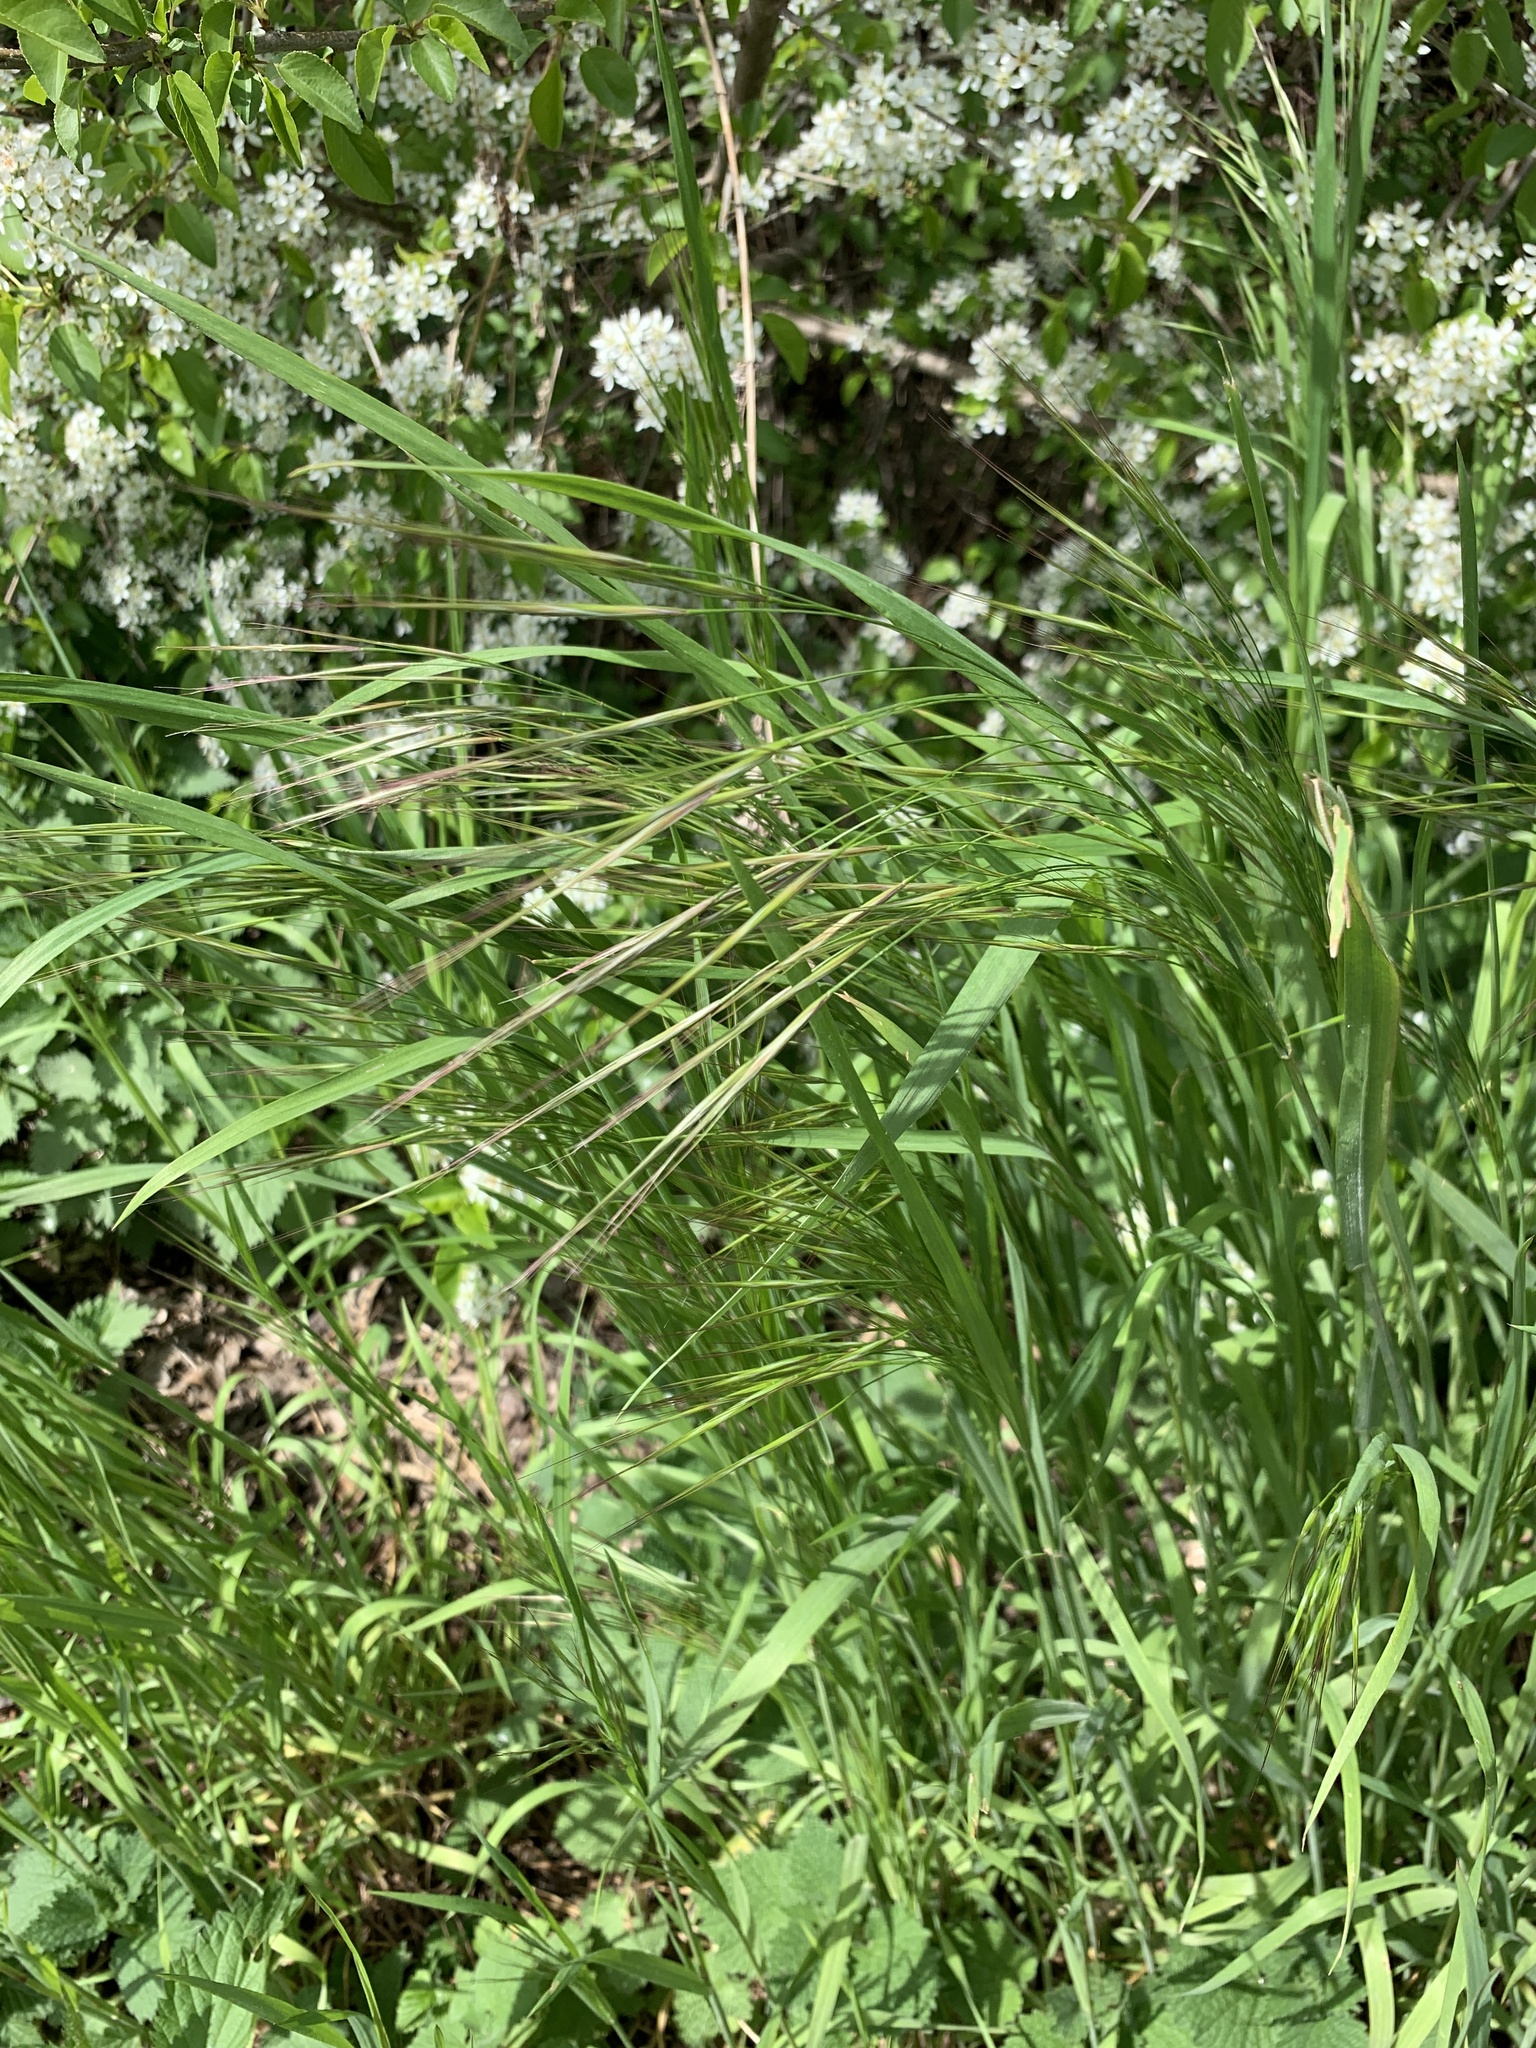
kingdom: Plantae
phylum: Tracheophyta
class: Liliopsida
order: Poales
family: Poaceae
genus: Bromus
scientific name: Bromus sterilis
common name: Poverty brome
